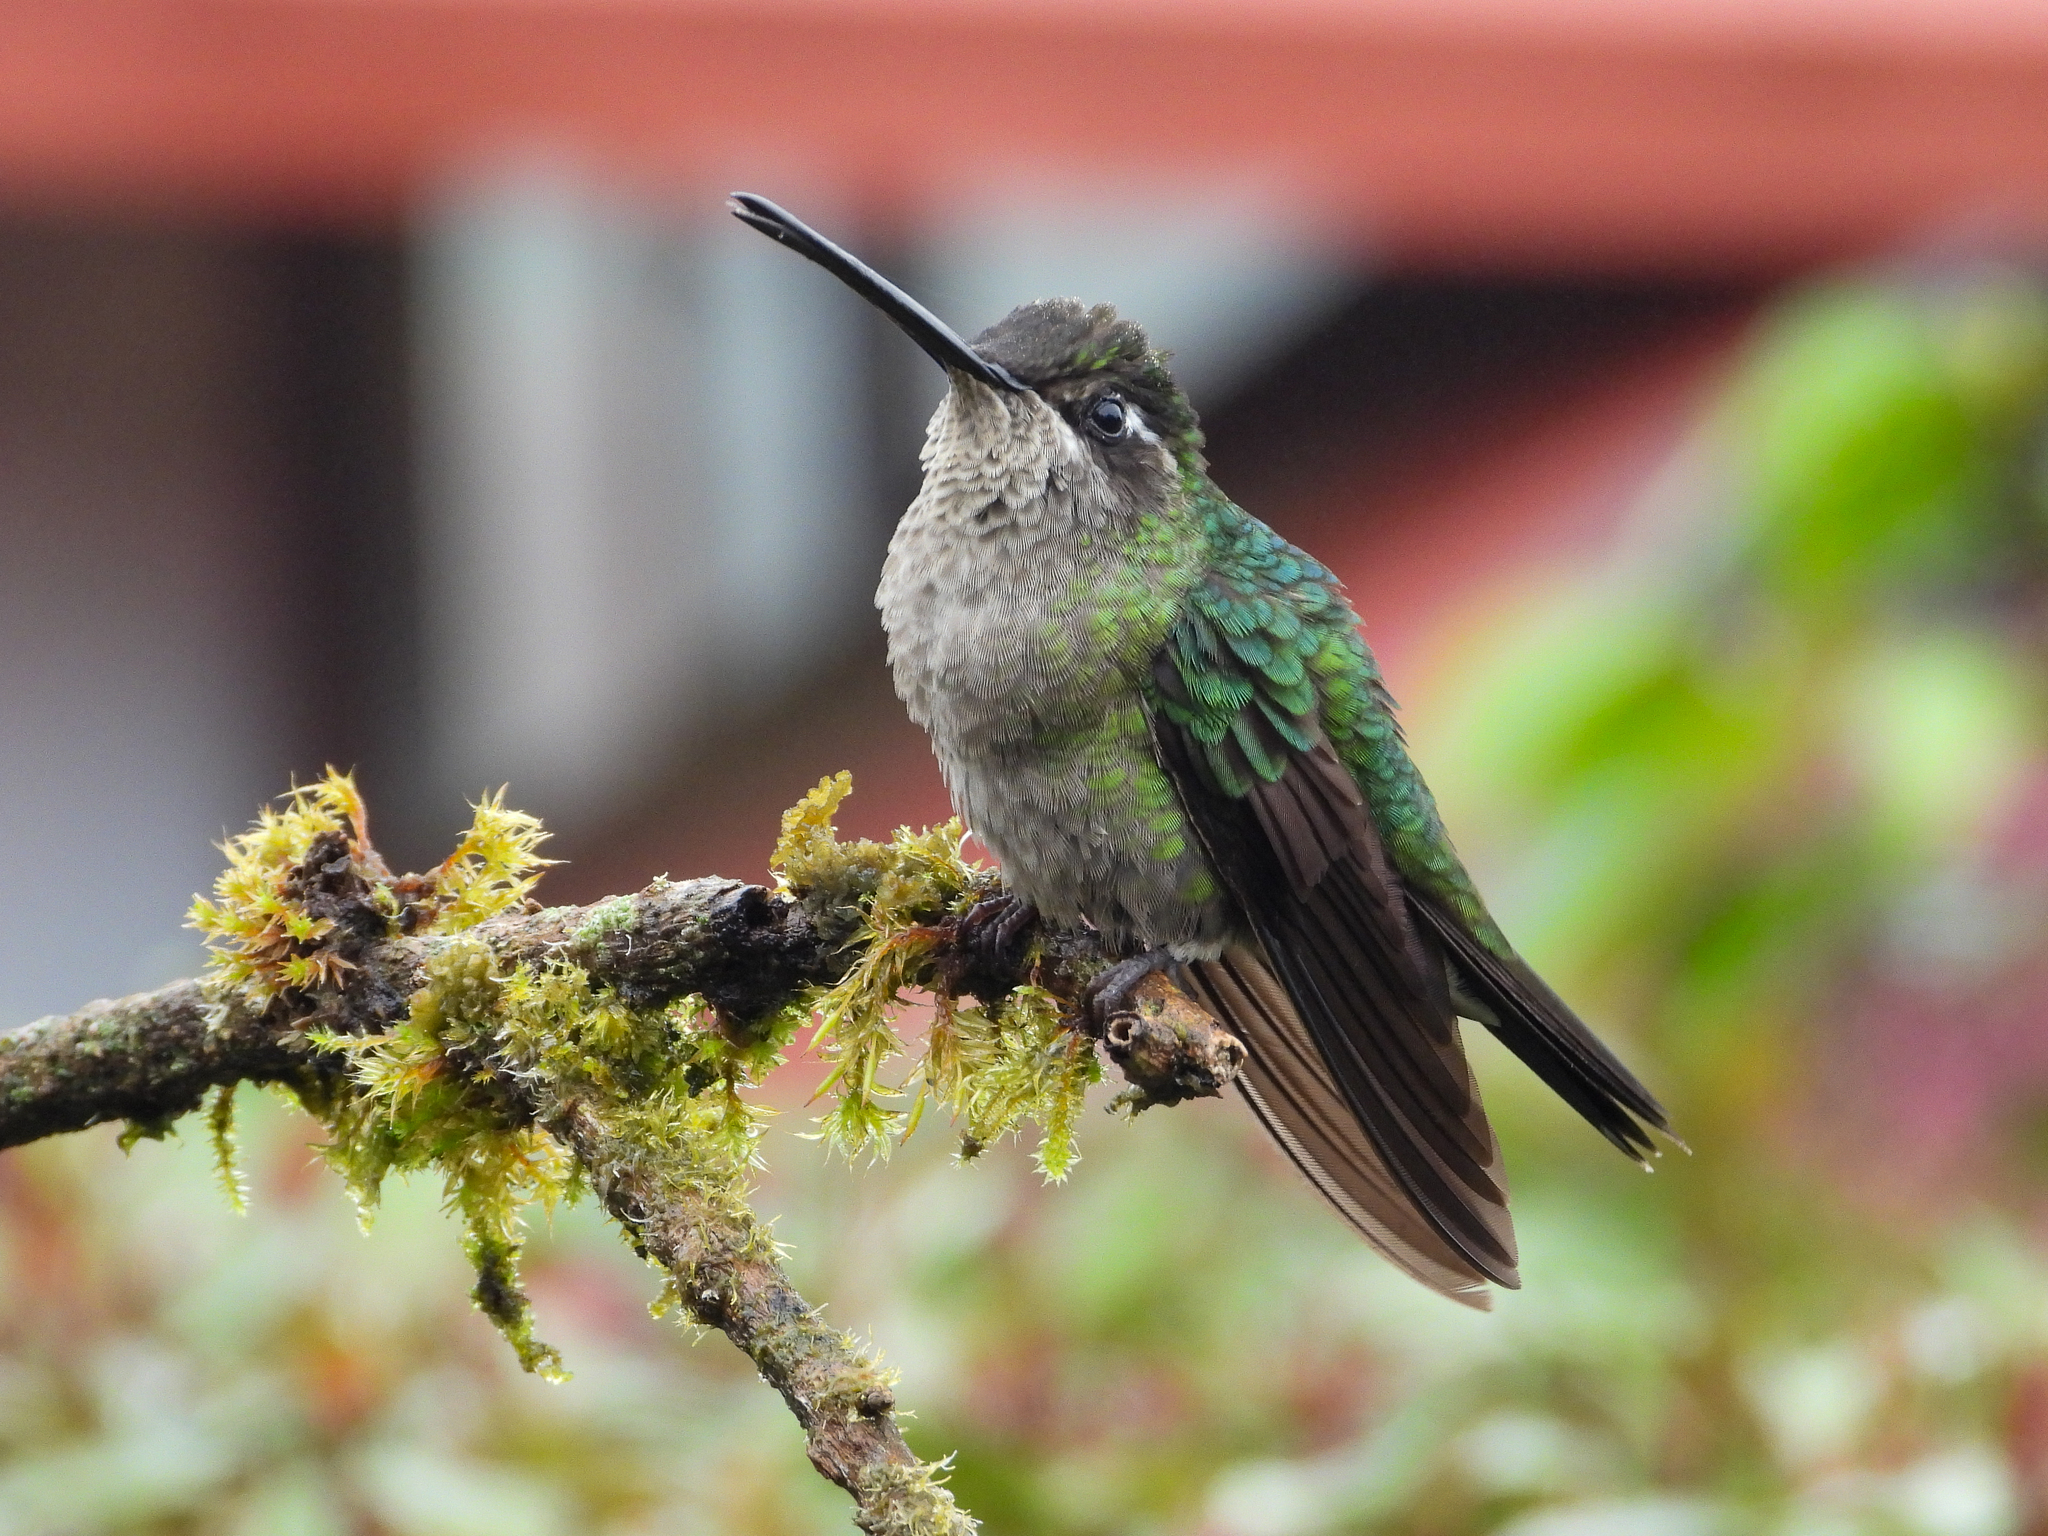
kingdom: Animalia
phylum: Chordata
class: Aves
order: Apodiformes
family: Trochilidae
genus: Eugenes
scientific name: Eugenes spectabilis
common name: Talamanca hummingbird
